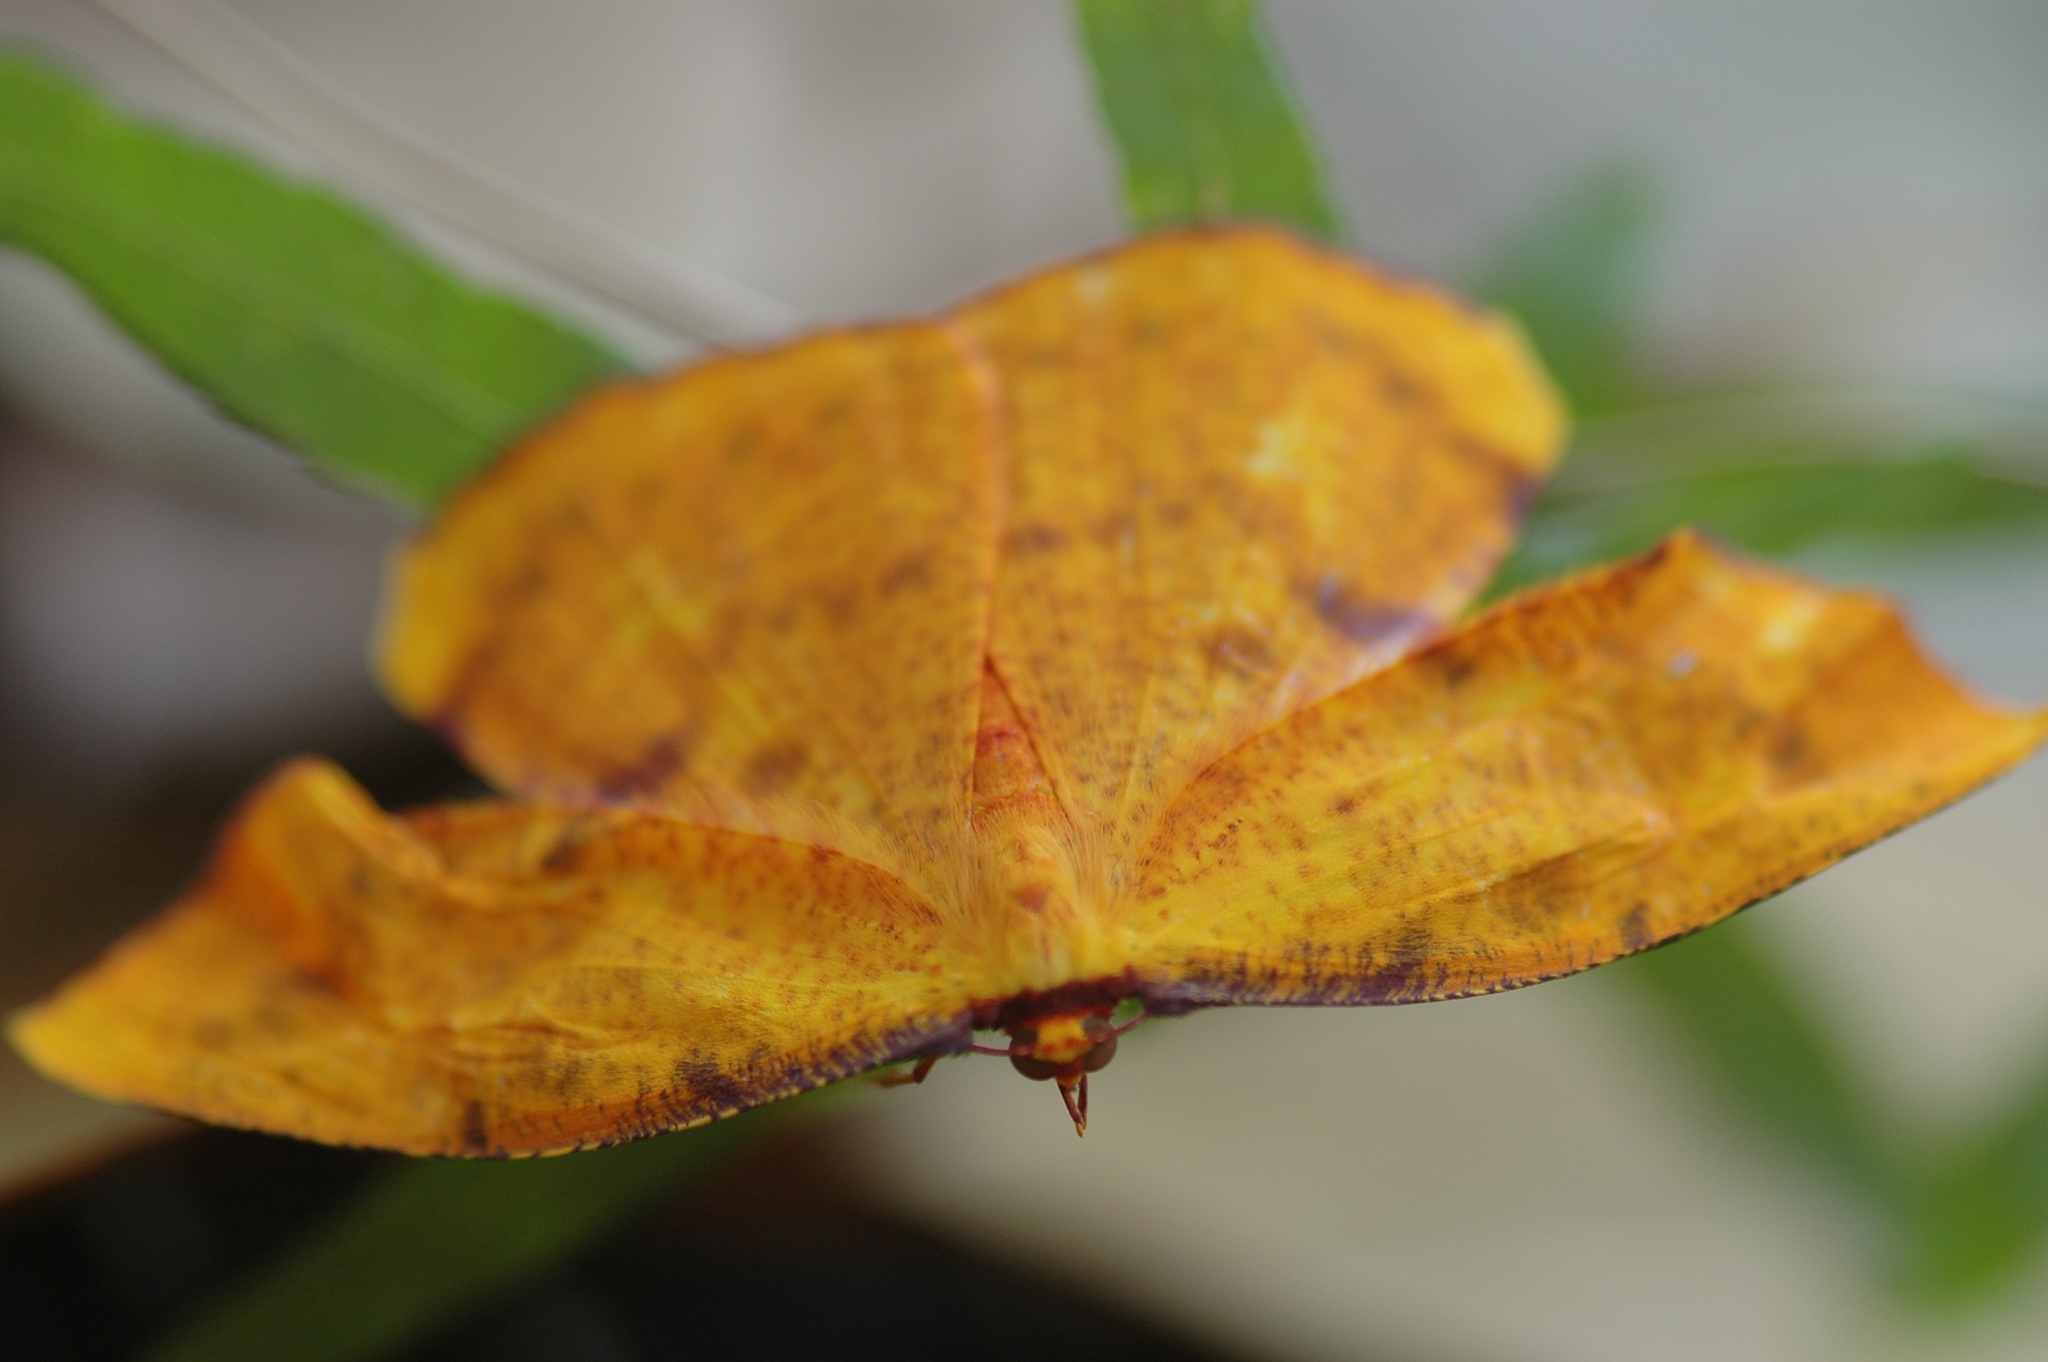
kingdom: Animalia
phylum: Arthropoda
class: Insecta
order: Lepidoptera
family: Geometridae
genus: Eumelea
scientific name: Eumelea ludovicata
